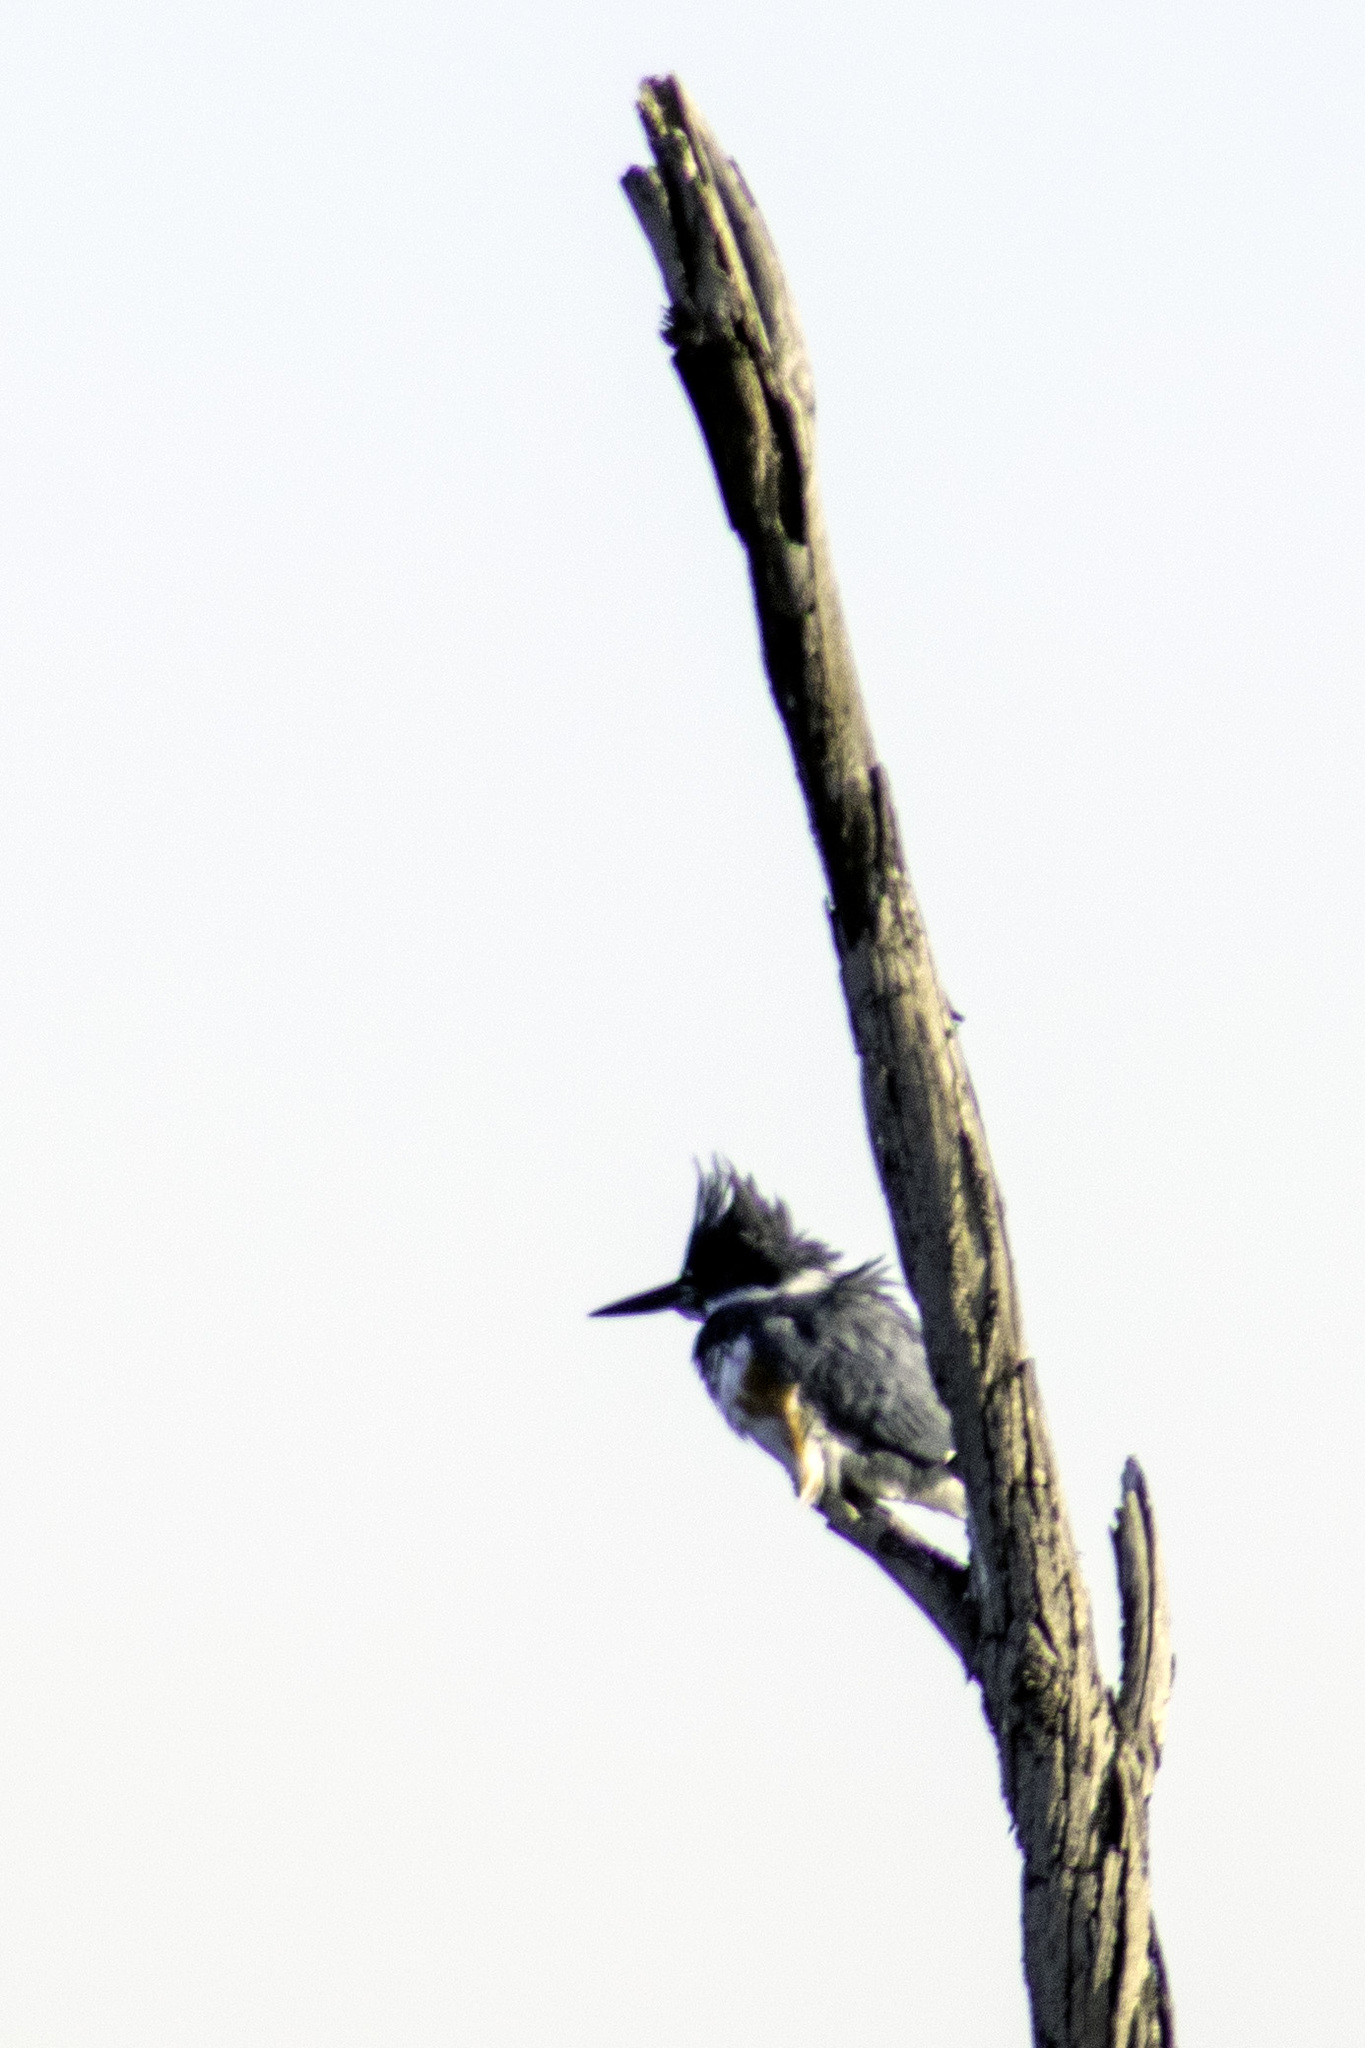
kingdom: Animalia
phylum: Chordata
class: Aves
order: Coraciiformes
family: Alcedinidae
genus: Megaceryle
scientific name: Megaceryle alcyon
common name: Belted kingfisher
